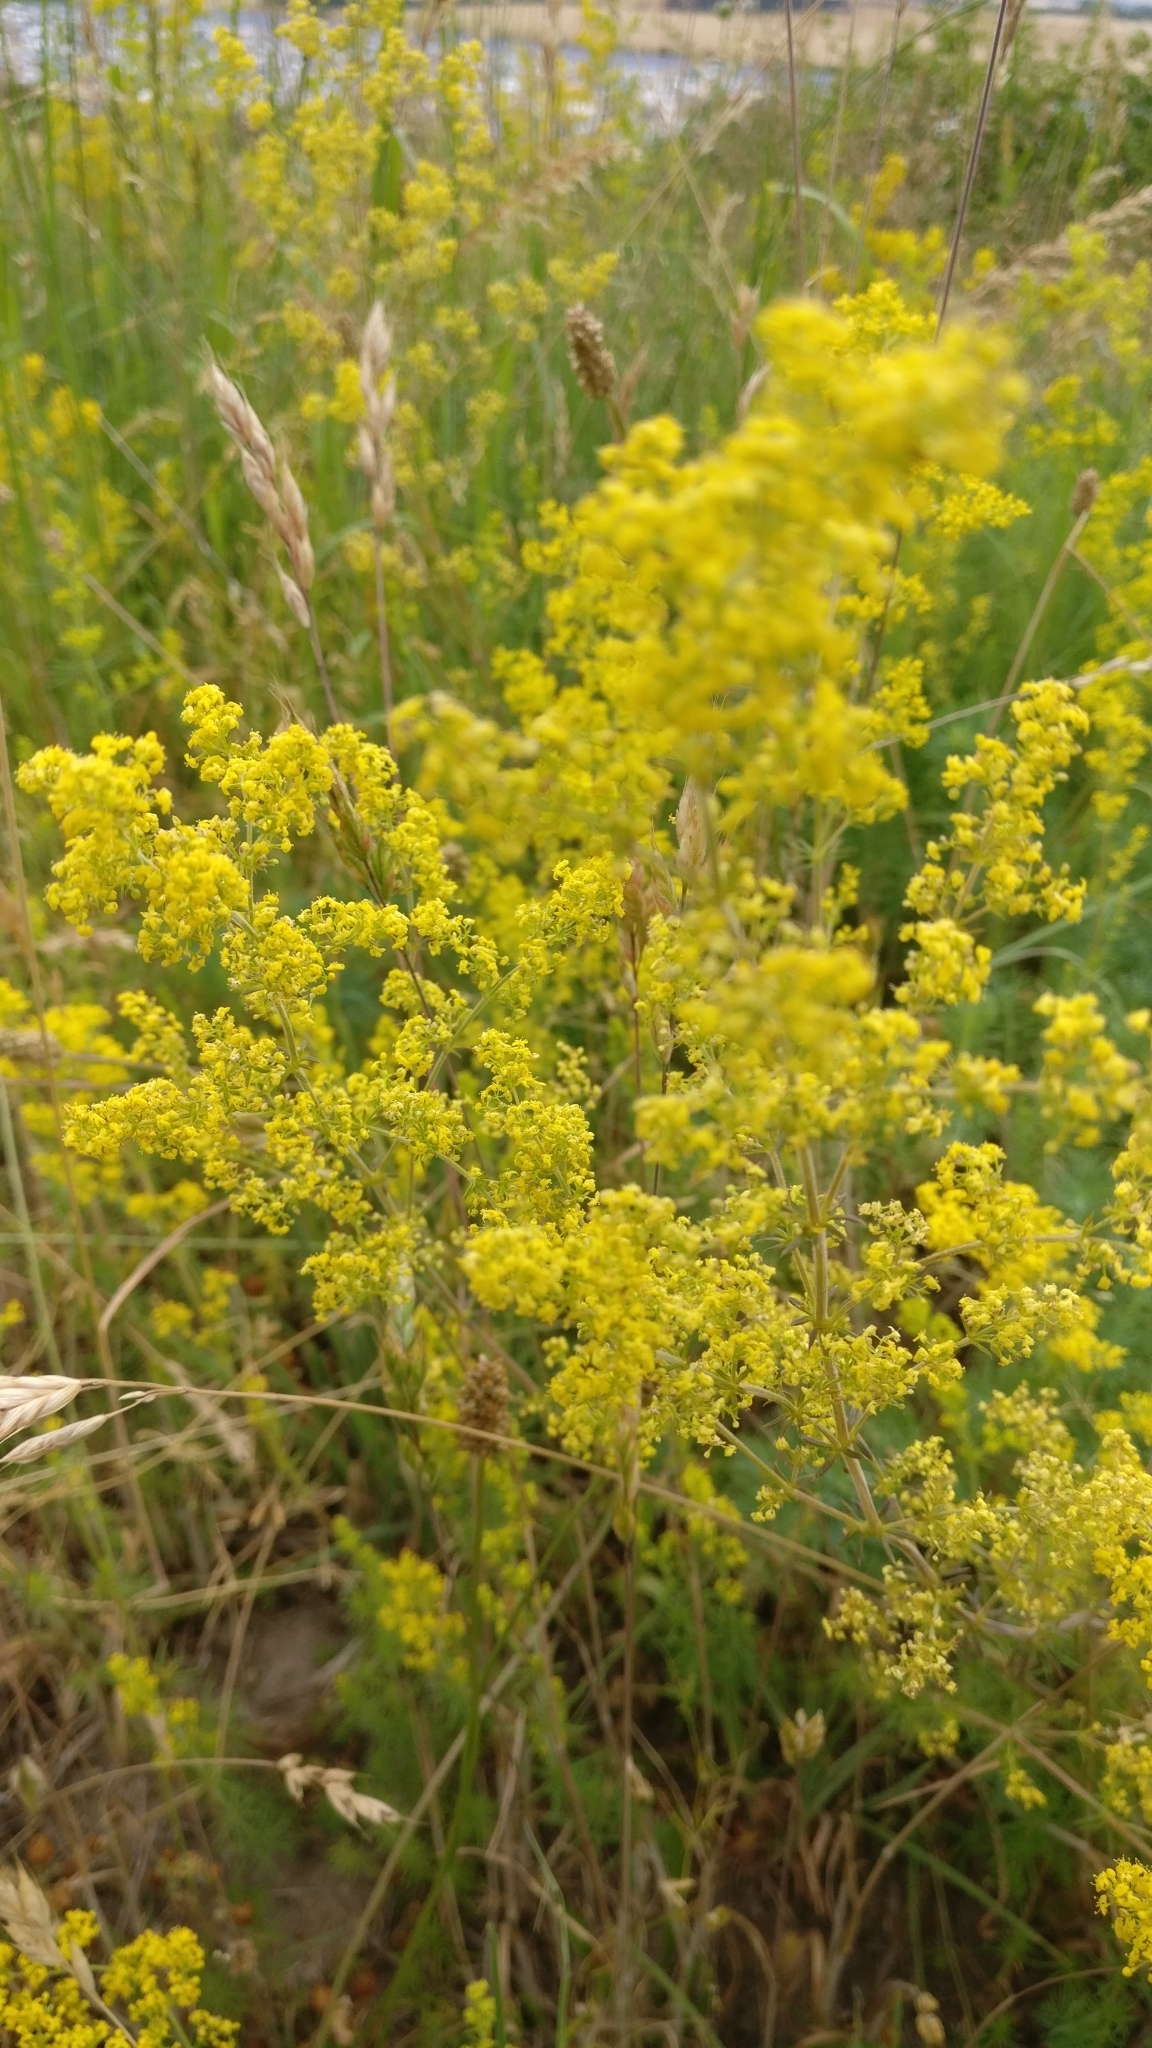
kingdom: Plantae
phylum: Tracheophyta
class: Magnoliopsida
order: Gentianales
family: Rubiaceae
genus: Galium
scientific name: Galium verum
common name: Lady's bedstraw
